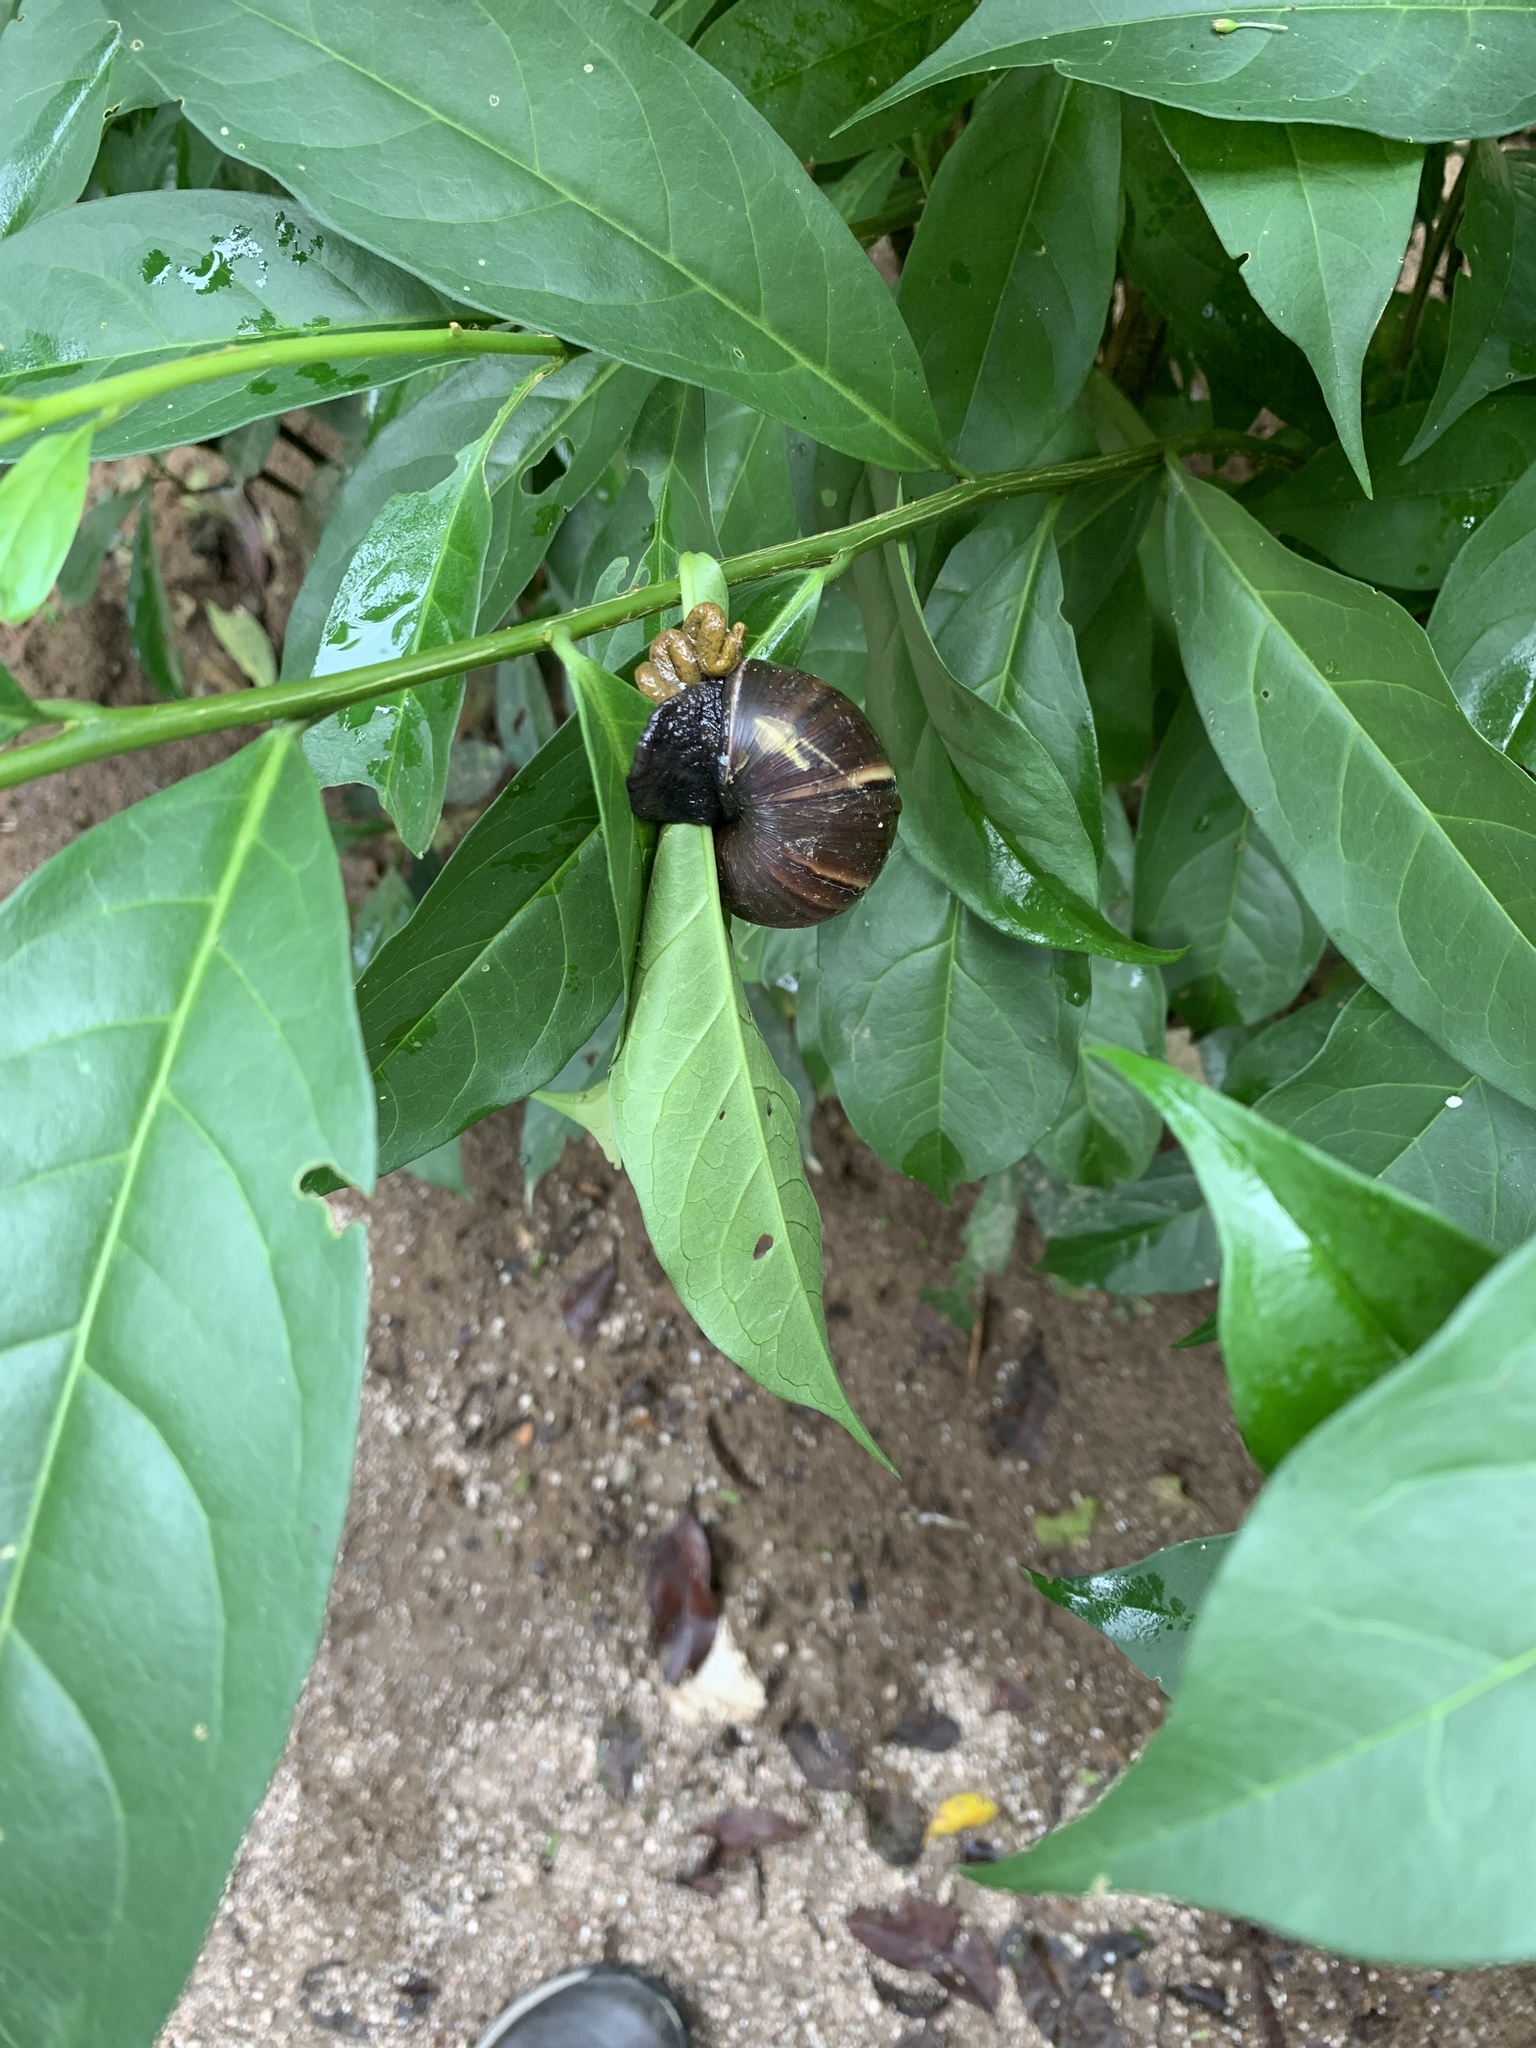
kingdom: Animalia
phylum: Mollusca
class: Gastropoda
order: Stylommatophora
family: Achatinidae
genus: Lissachatina
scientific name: Lissachatina fulica
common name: Giant african snail
